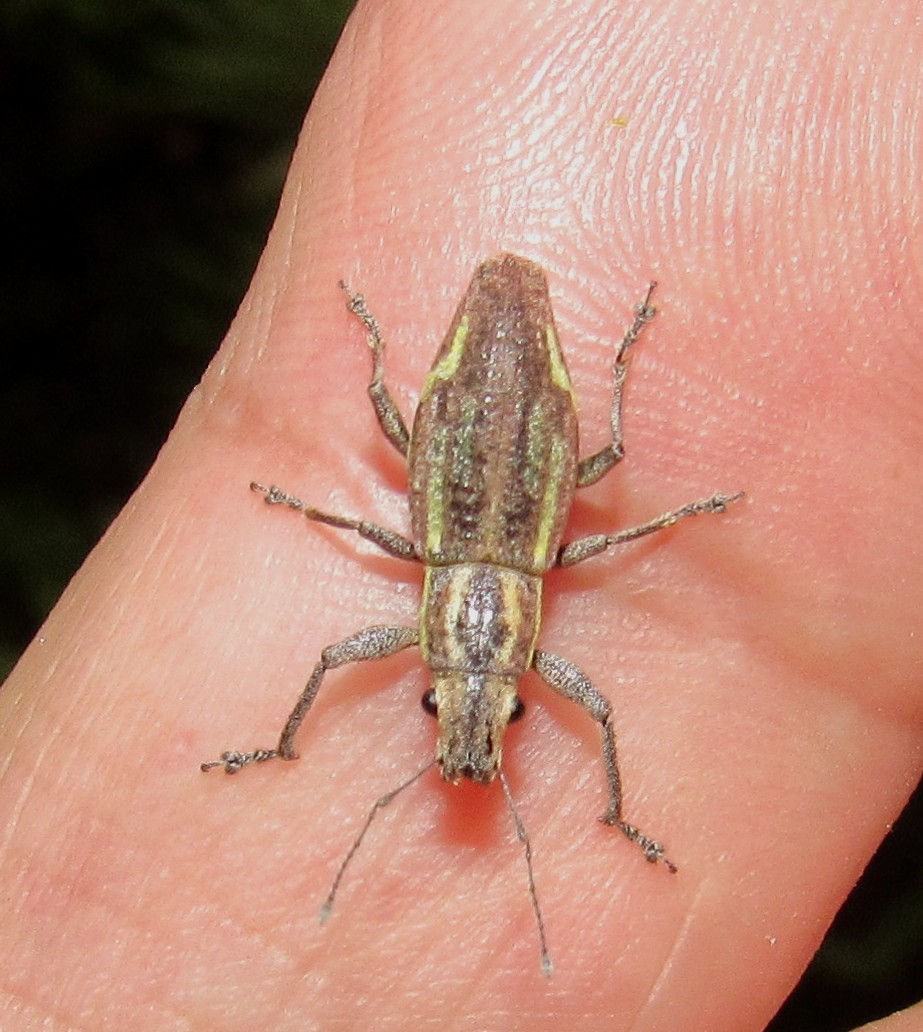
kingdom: Animalia
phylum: Arthropoda
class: Insecta
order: Coleoptera
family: Curculionidae
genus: Naupactus
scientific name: Naupactus navicularis
